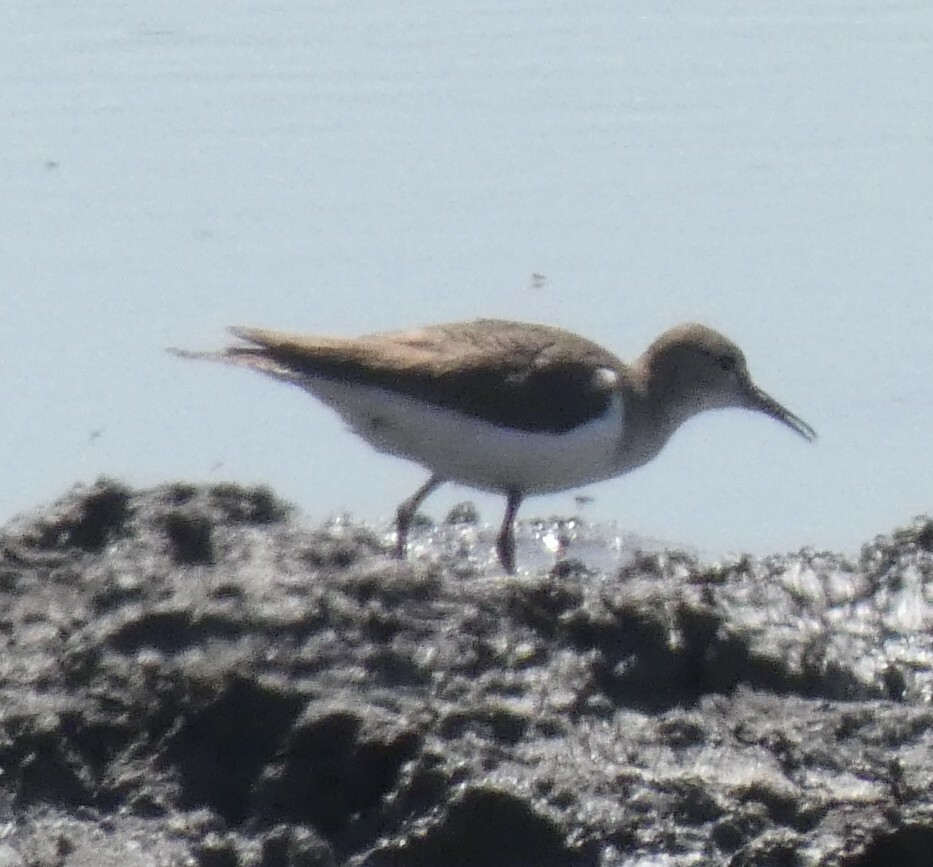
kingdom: Animalia
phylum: Chordata
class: Aves
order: Charadriiformes
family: Scolopacidae
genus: Actitis
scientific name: Actitis hypoleucos
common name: Common sandpiper
